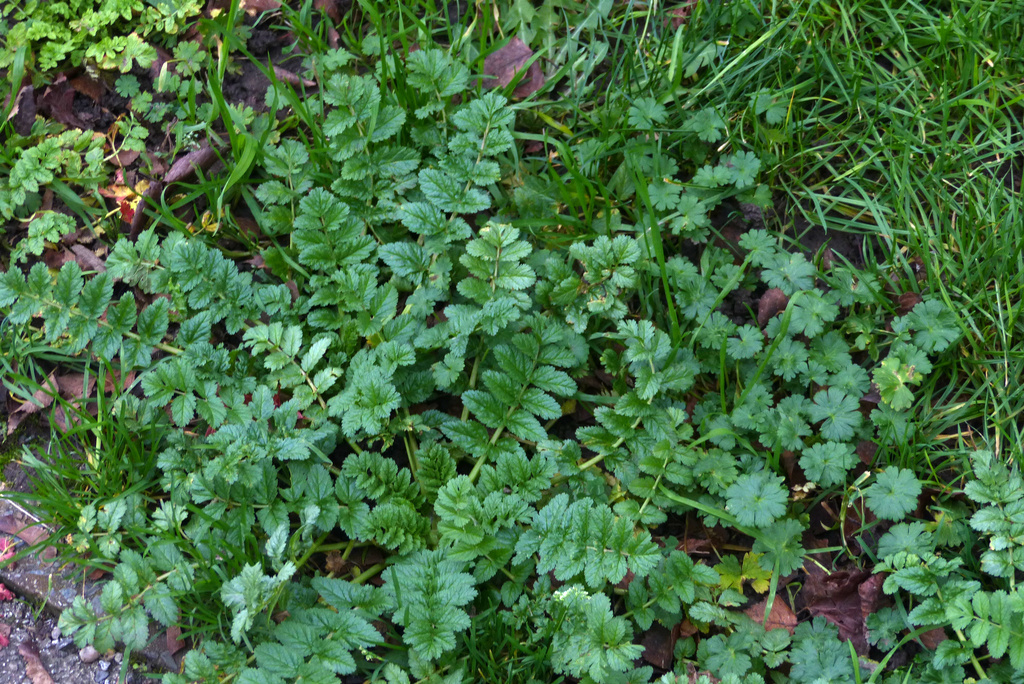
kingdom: Plantae
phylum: Tracheophyta
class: Magnoliopsida
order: Geraniales
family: Geraniaceae
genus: Erodium
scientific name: Erodium moschatum
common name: Musk stork's-bill
